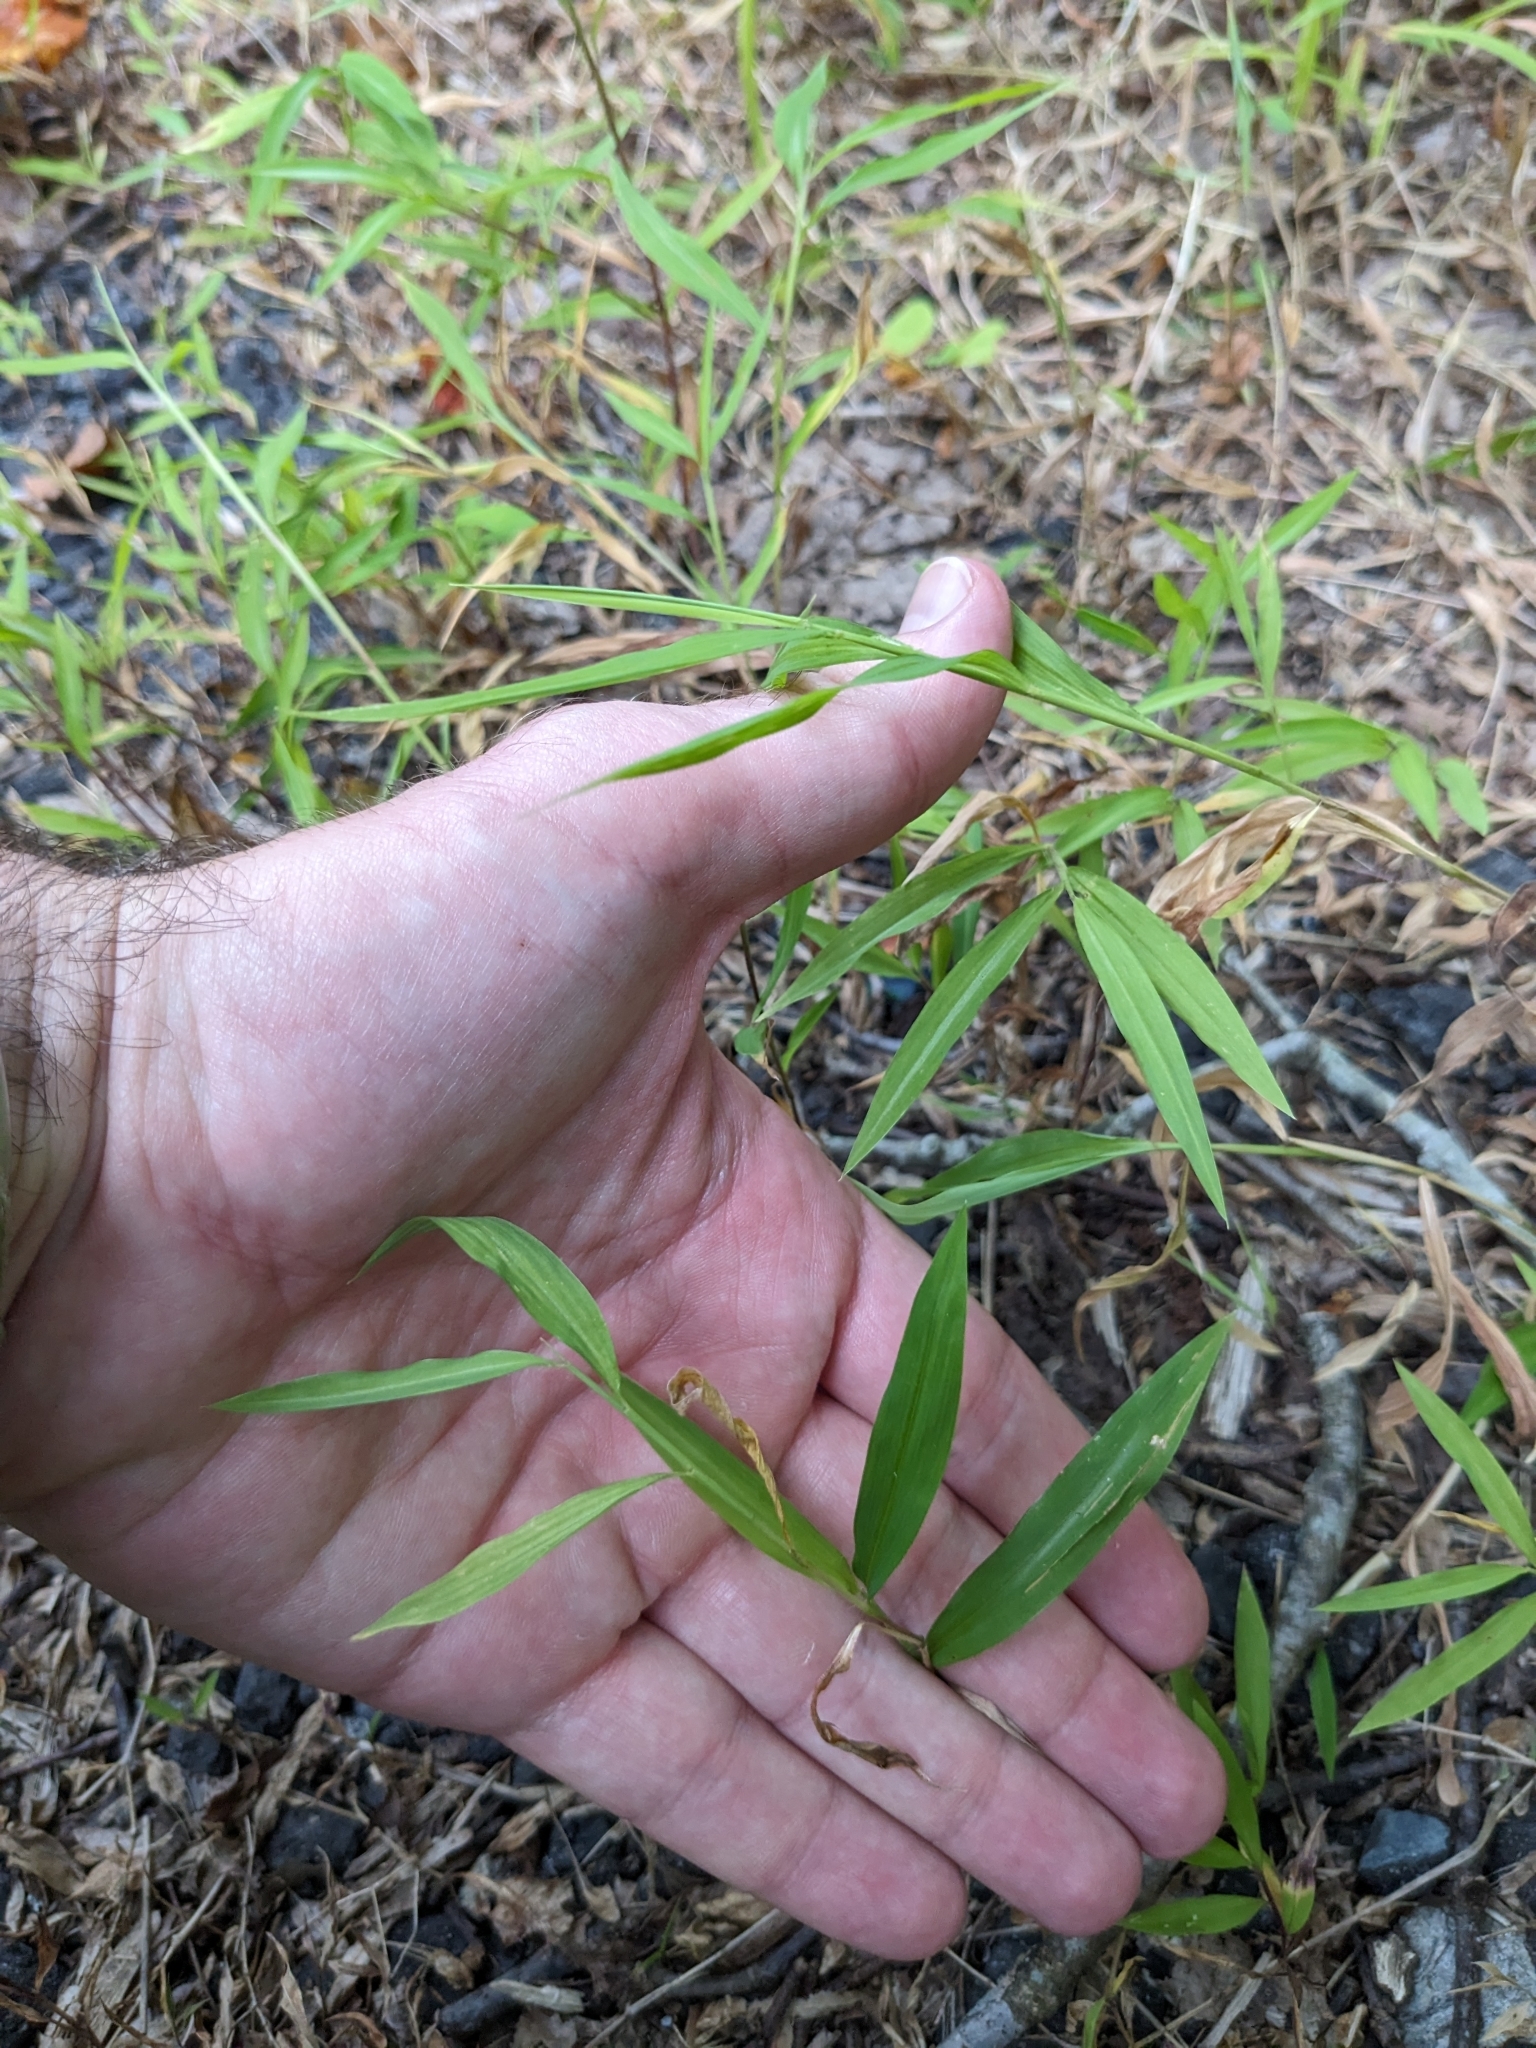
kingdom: Plantae
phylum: Tracheophyta
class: Liliopsida
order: Poales
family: Poaceae
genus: Microstegium
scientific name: Microstegium vimineum
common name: Japanese stiltgrass
